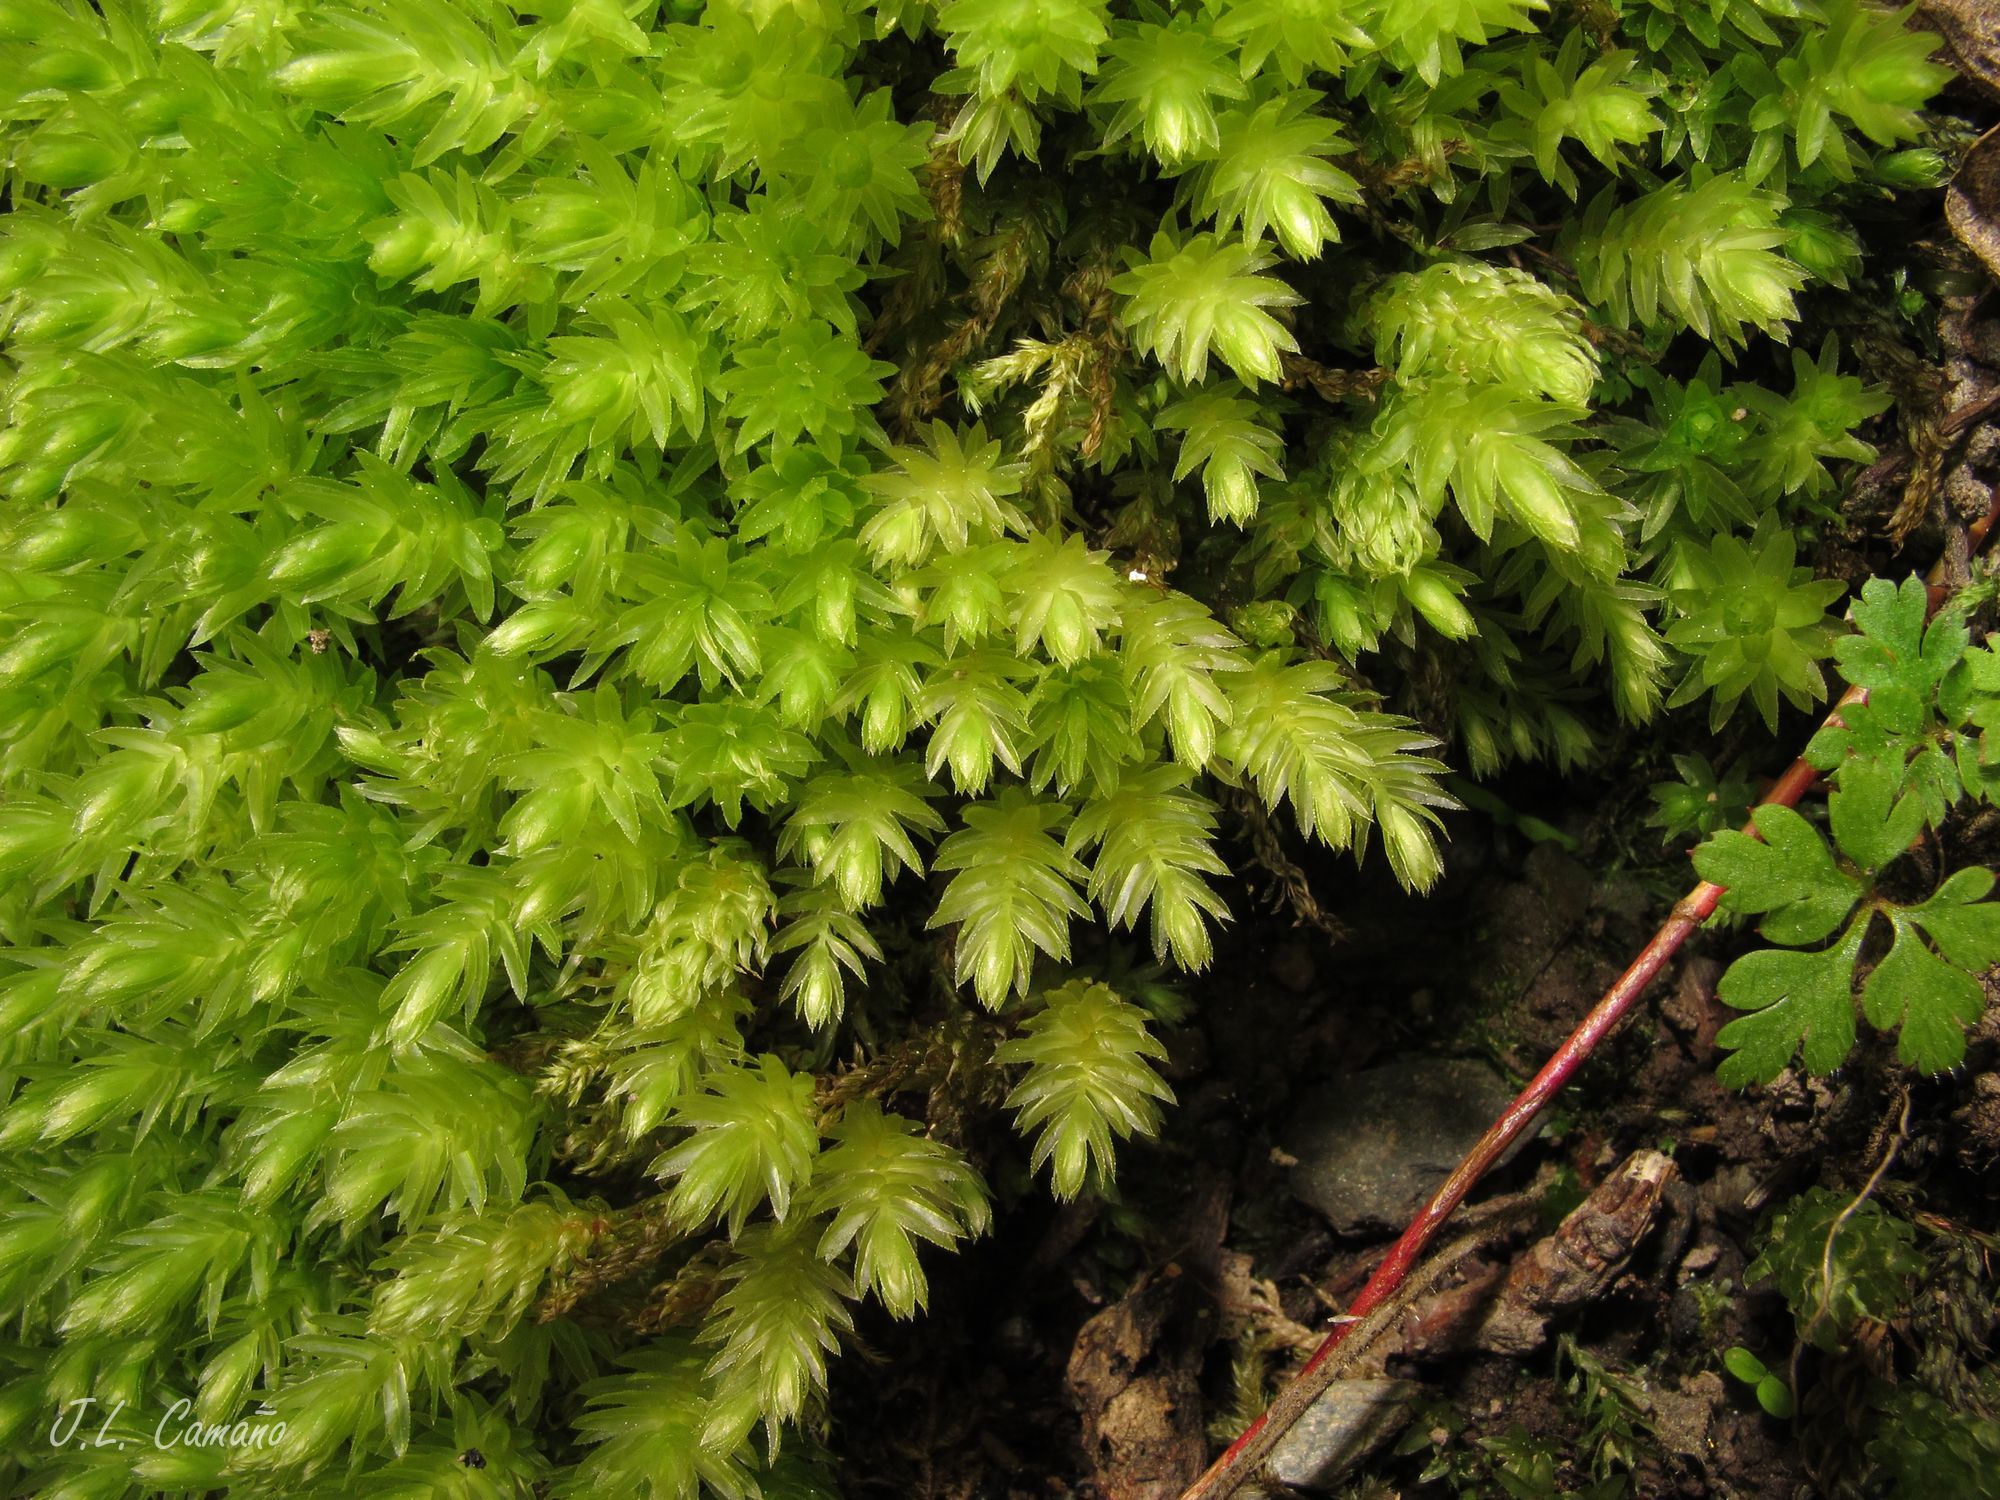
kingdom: Plantae
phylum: Bryophyta
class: Bryopsida
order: Bryales
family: Mniaceae
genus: Mnium
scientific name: Mnium hornum
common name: Swan's-neck leafy moss
